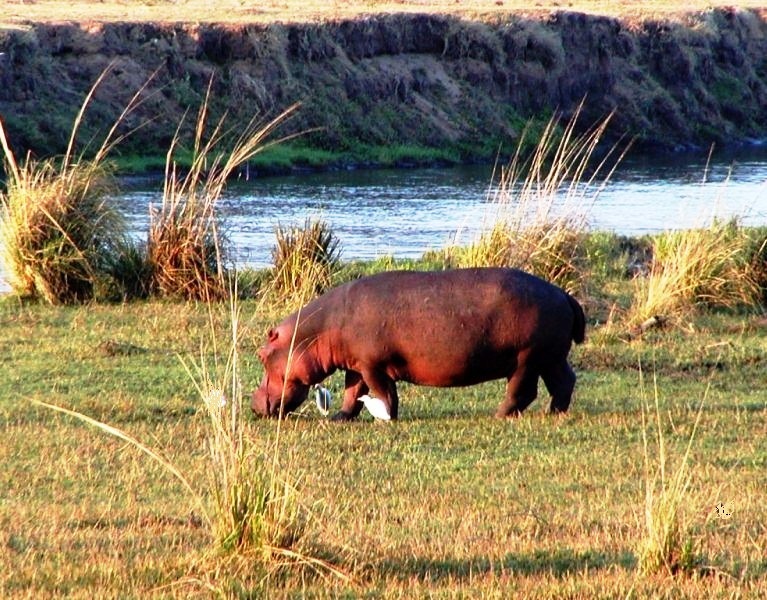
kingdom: Animalia
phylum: Chordata
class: Mammalia
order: Artiodactyla
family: Hippopotamidae
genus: Hippopotamus
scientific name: Hippopotamus amphibius
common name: Common hippopotamus
